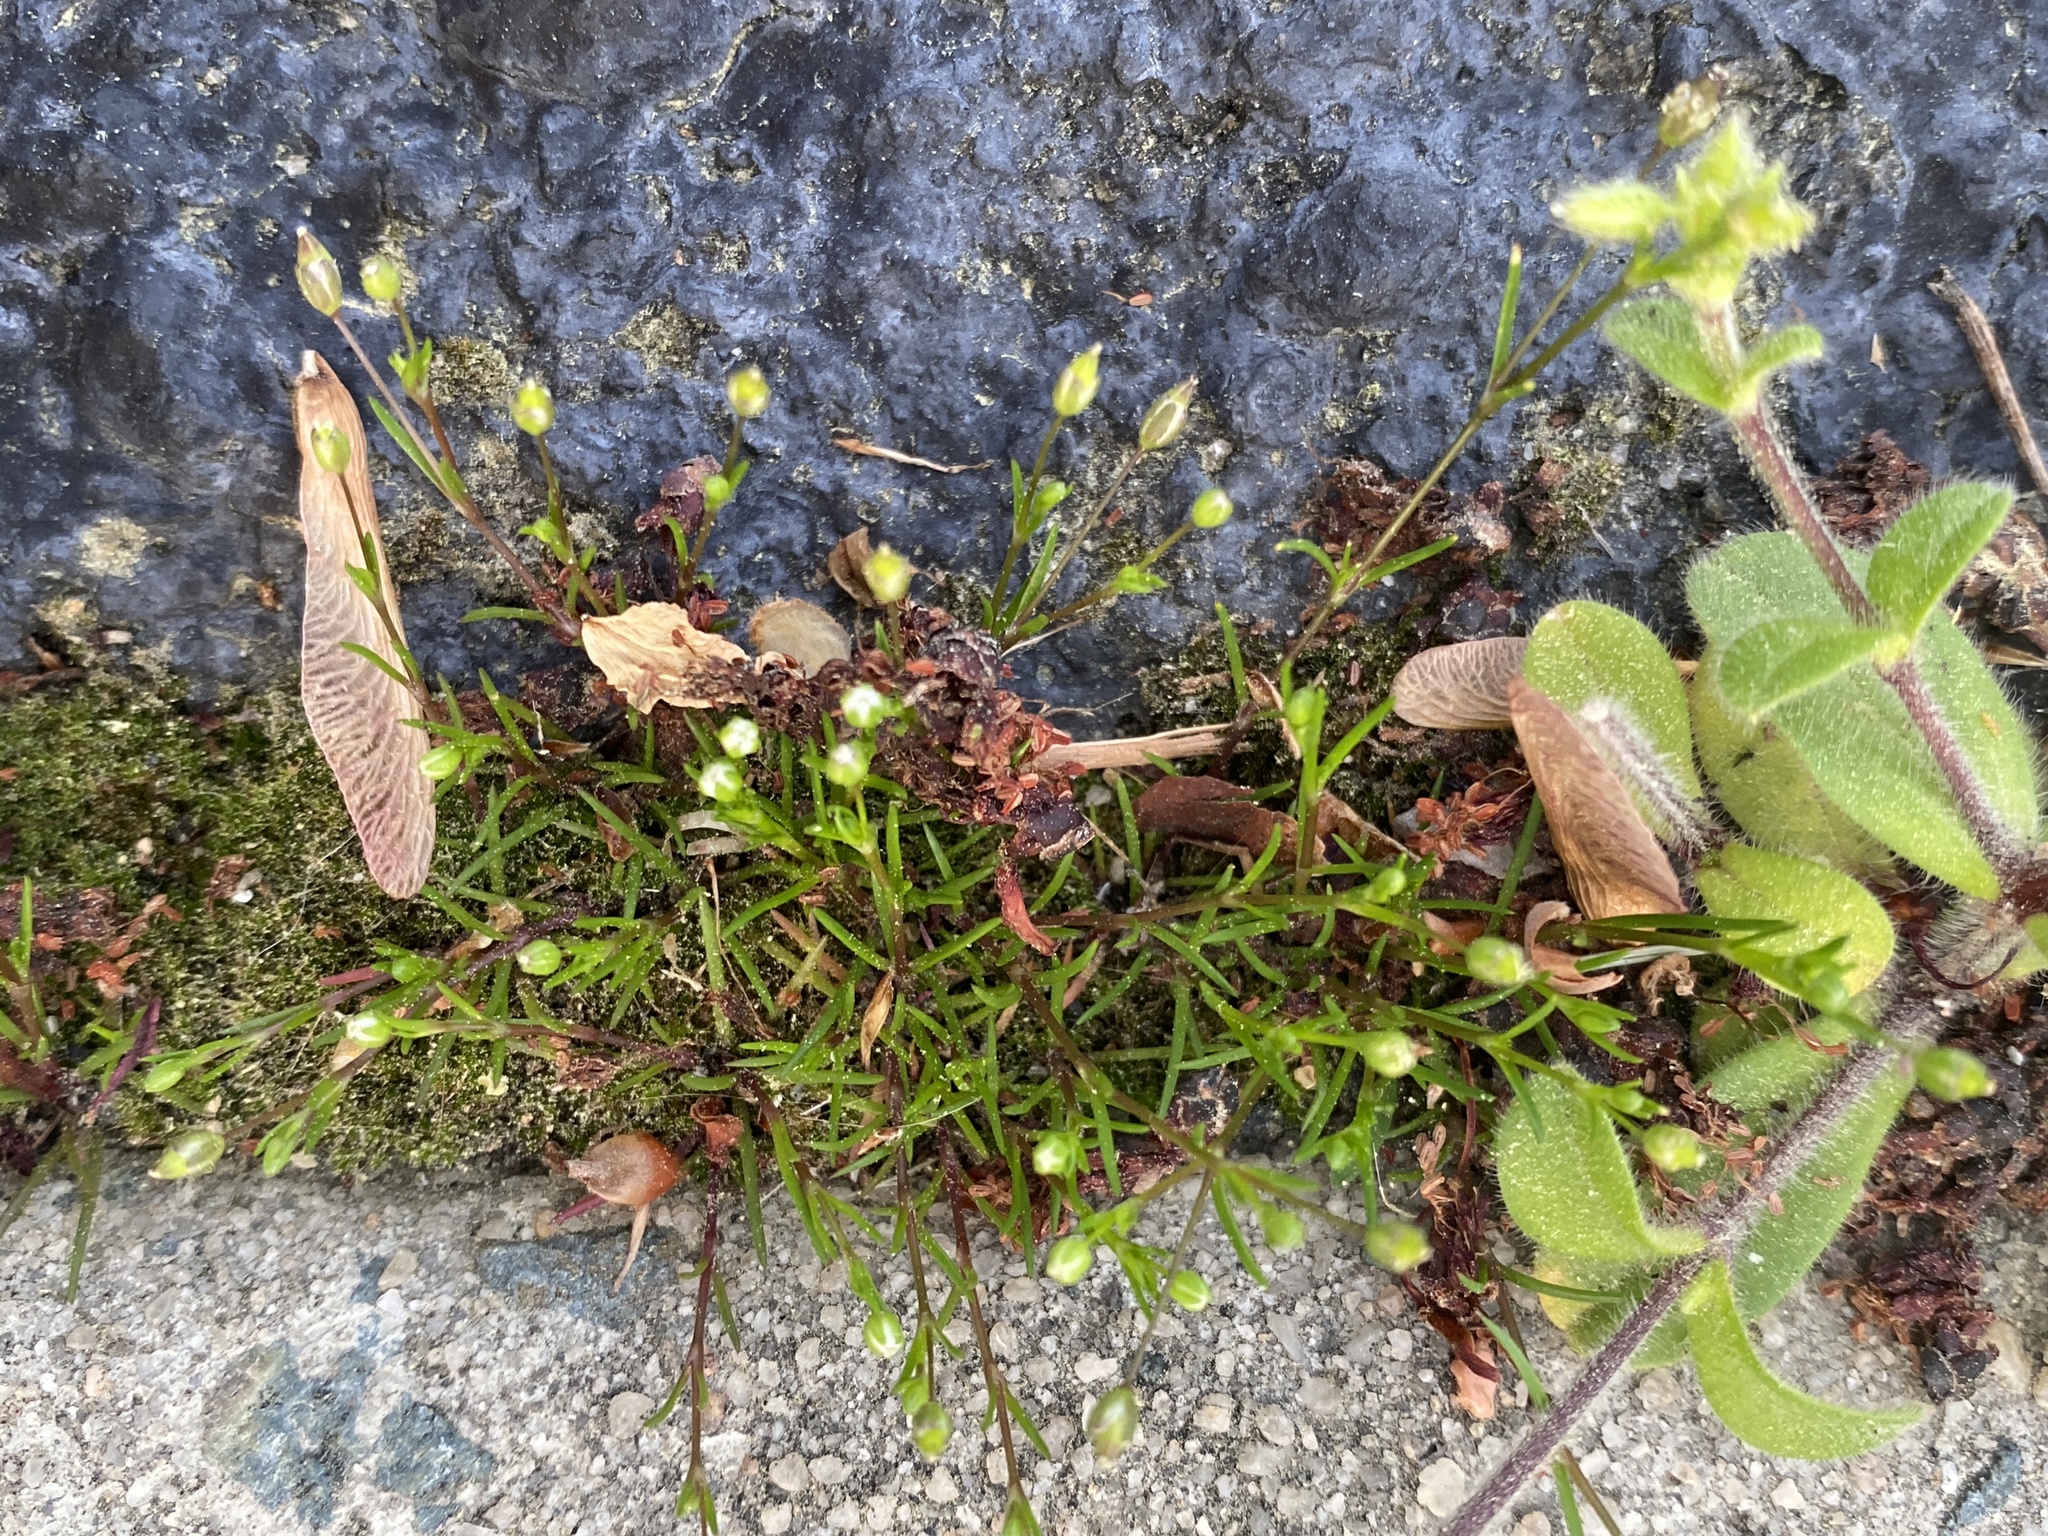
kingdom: Plantae
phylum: Tracheophyta
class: Magnoliopsida
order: Caryophyllales
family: Caryophyllaceae
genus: Sagina
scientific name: Sagina decumbens
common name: Decumbent pearlwort
